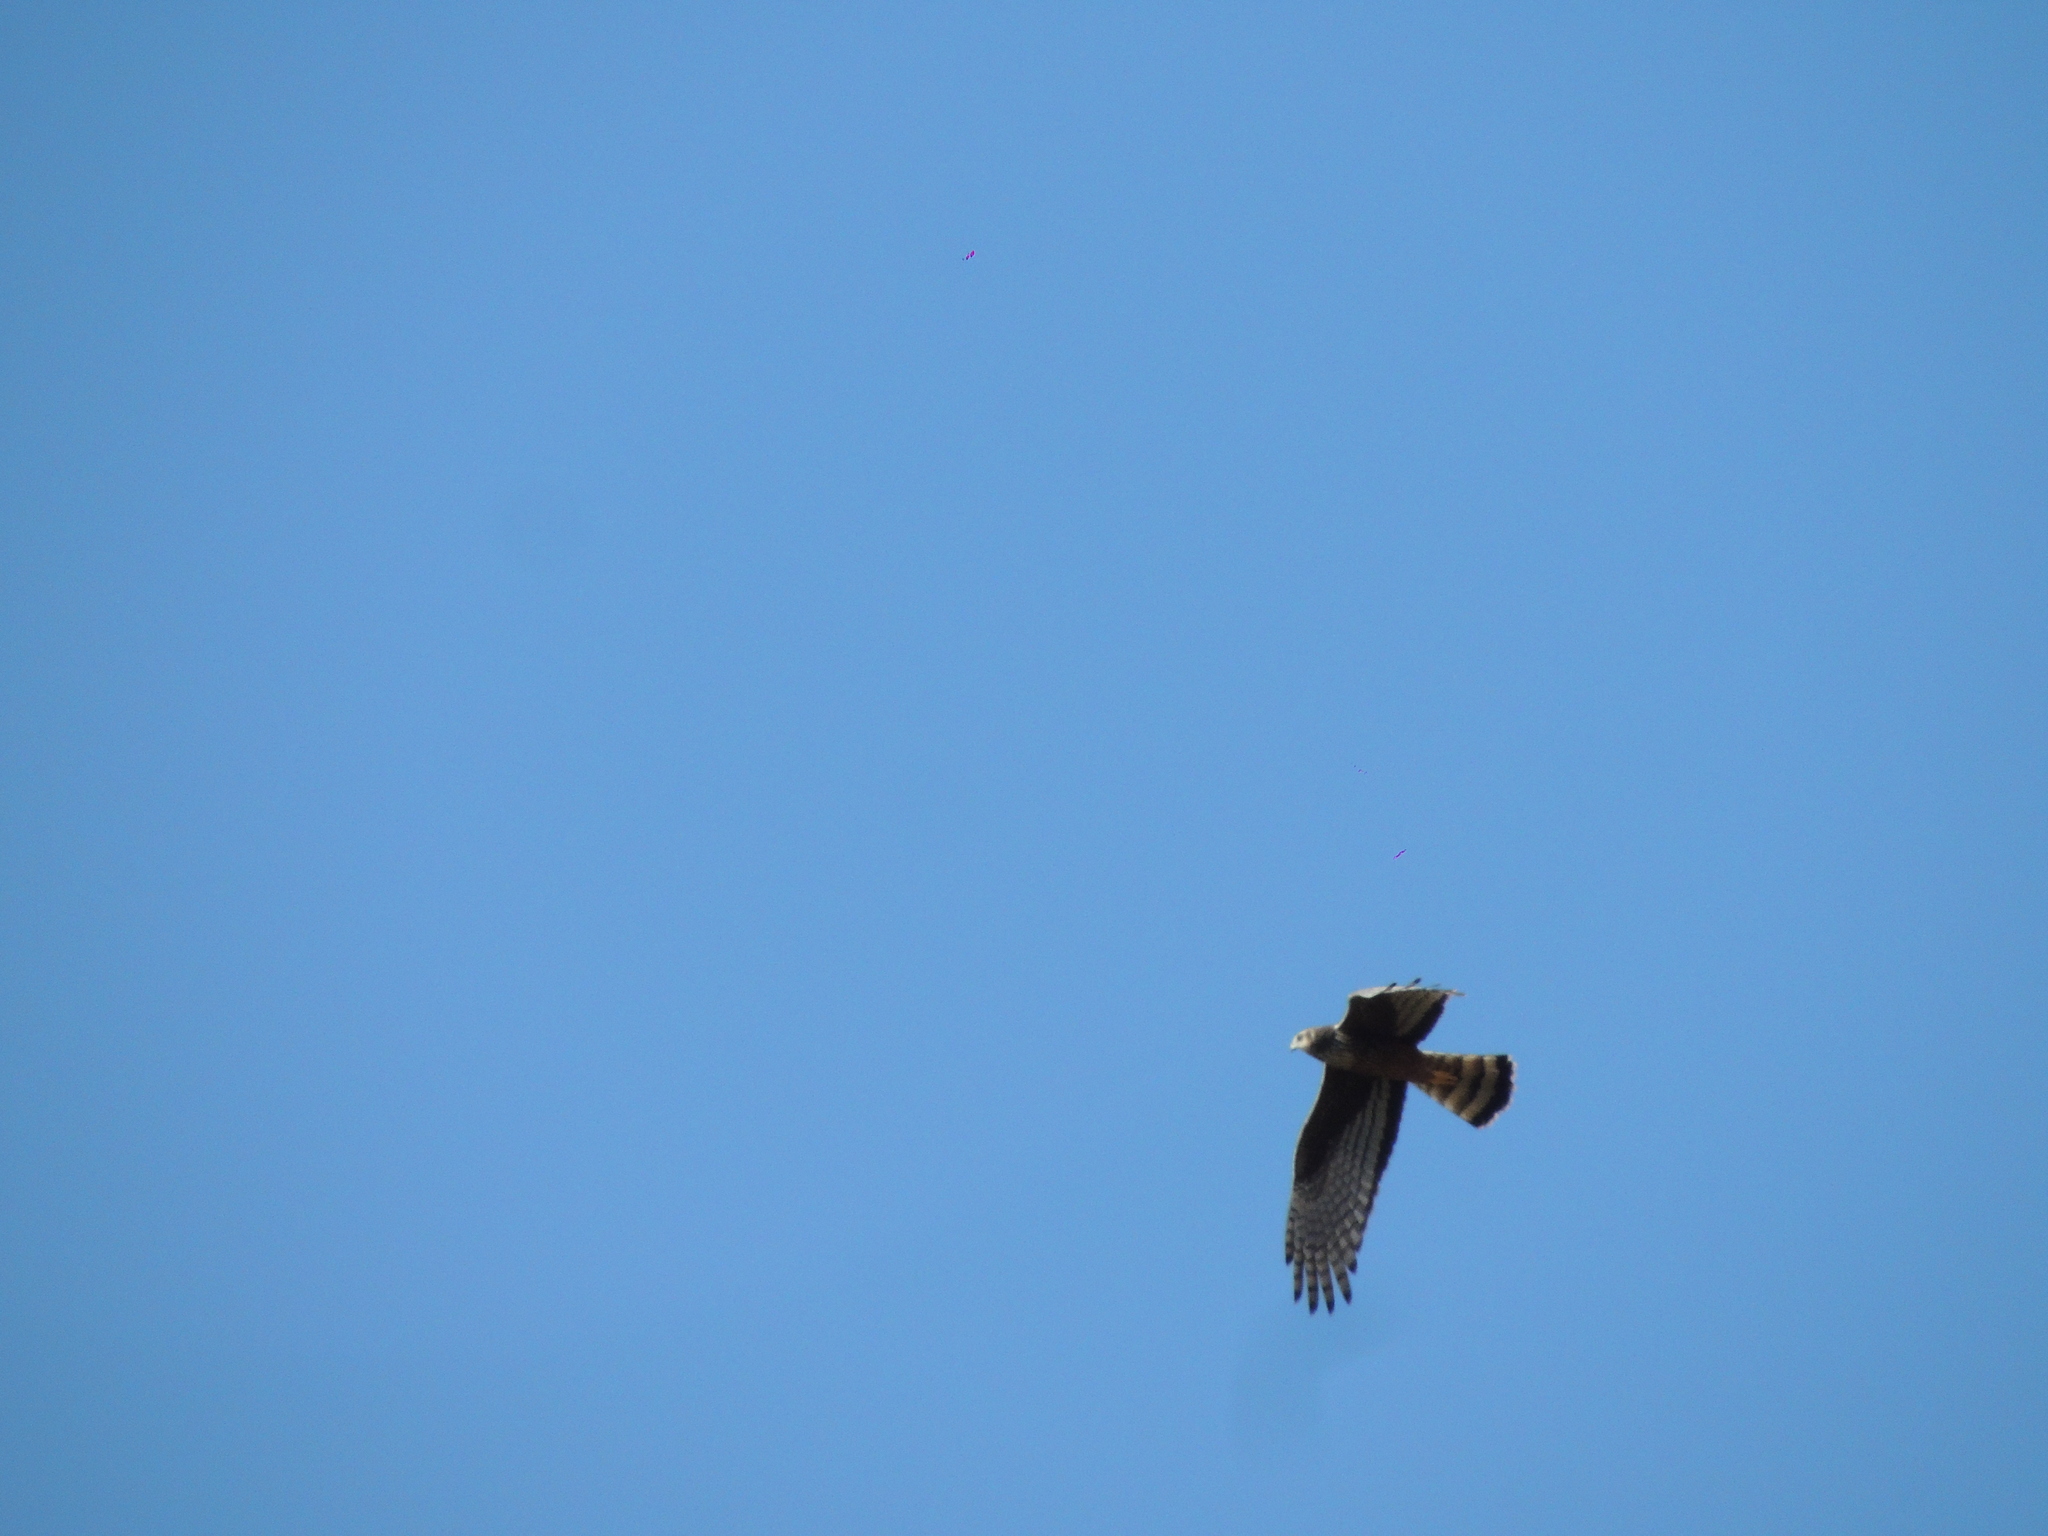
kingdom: Animalia
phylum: Chordata
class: Aves
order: Accipitriformes
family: Accipitridae
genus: Circus
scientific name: Circus buffoni
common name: Long-winged harrier
